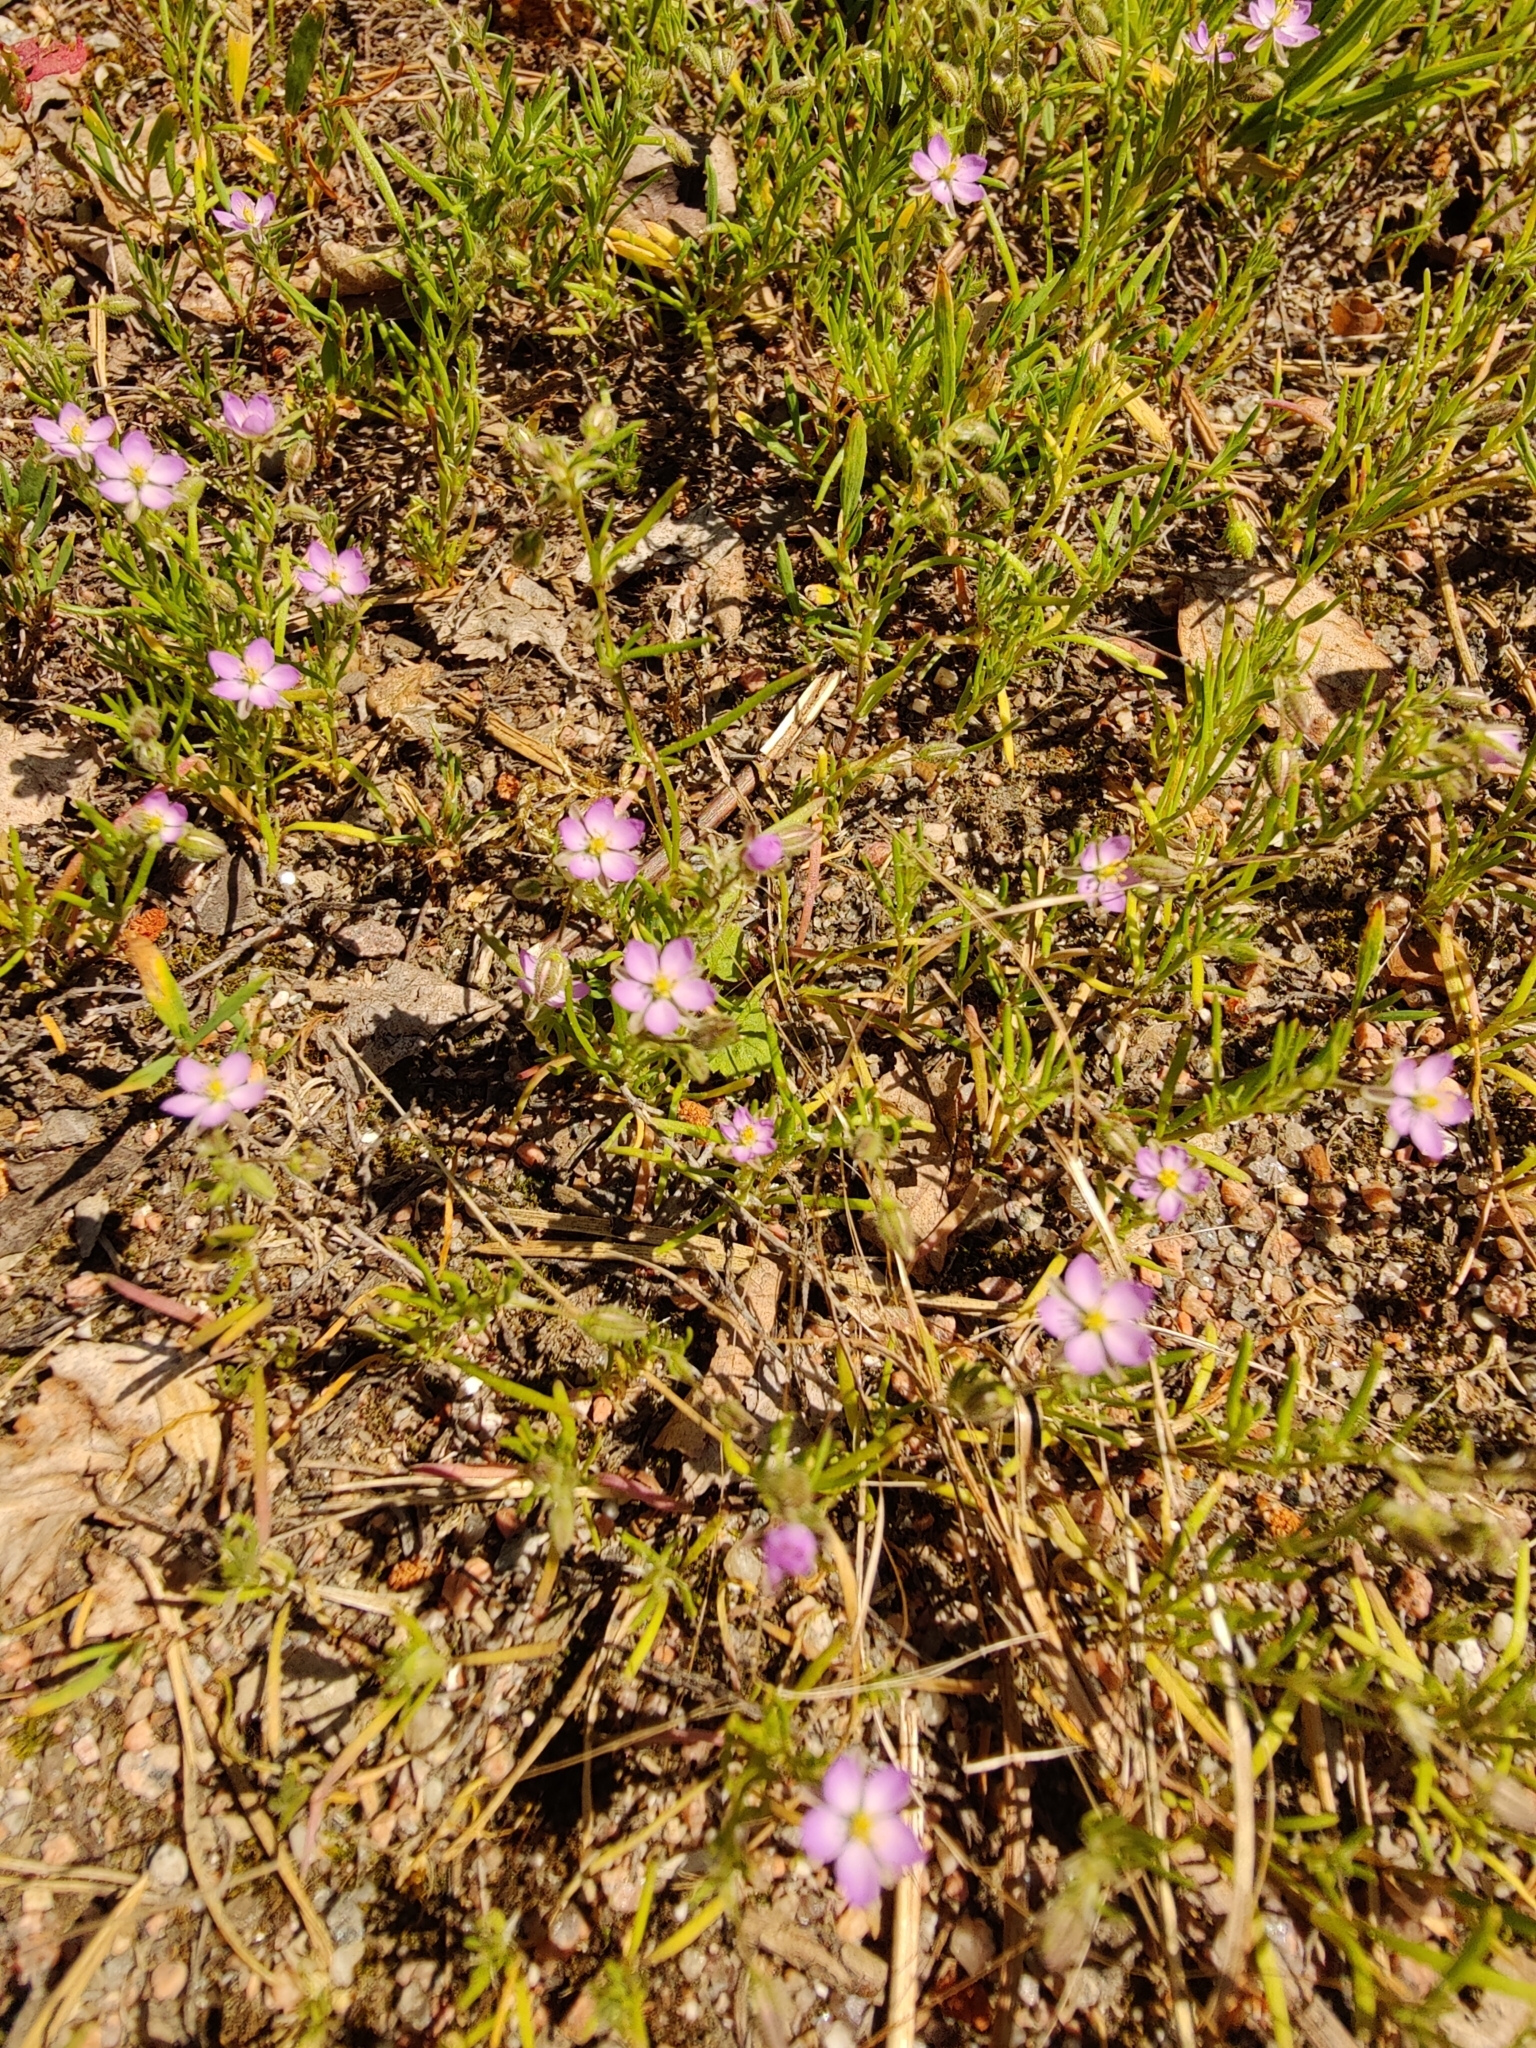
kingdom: Plantae
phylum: Tracheophyta
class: Magnoliopsida
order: Caryophyllales
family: Caryophyllaceae
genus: Spergularia
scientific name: Spergularia rubra
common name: Red sand-spurrey
